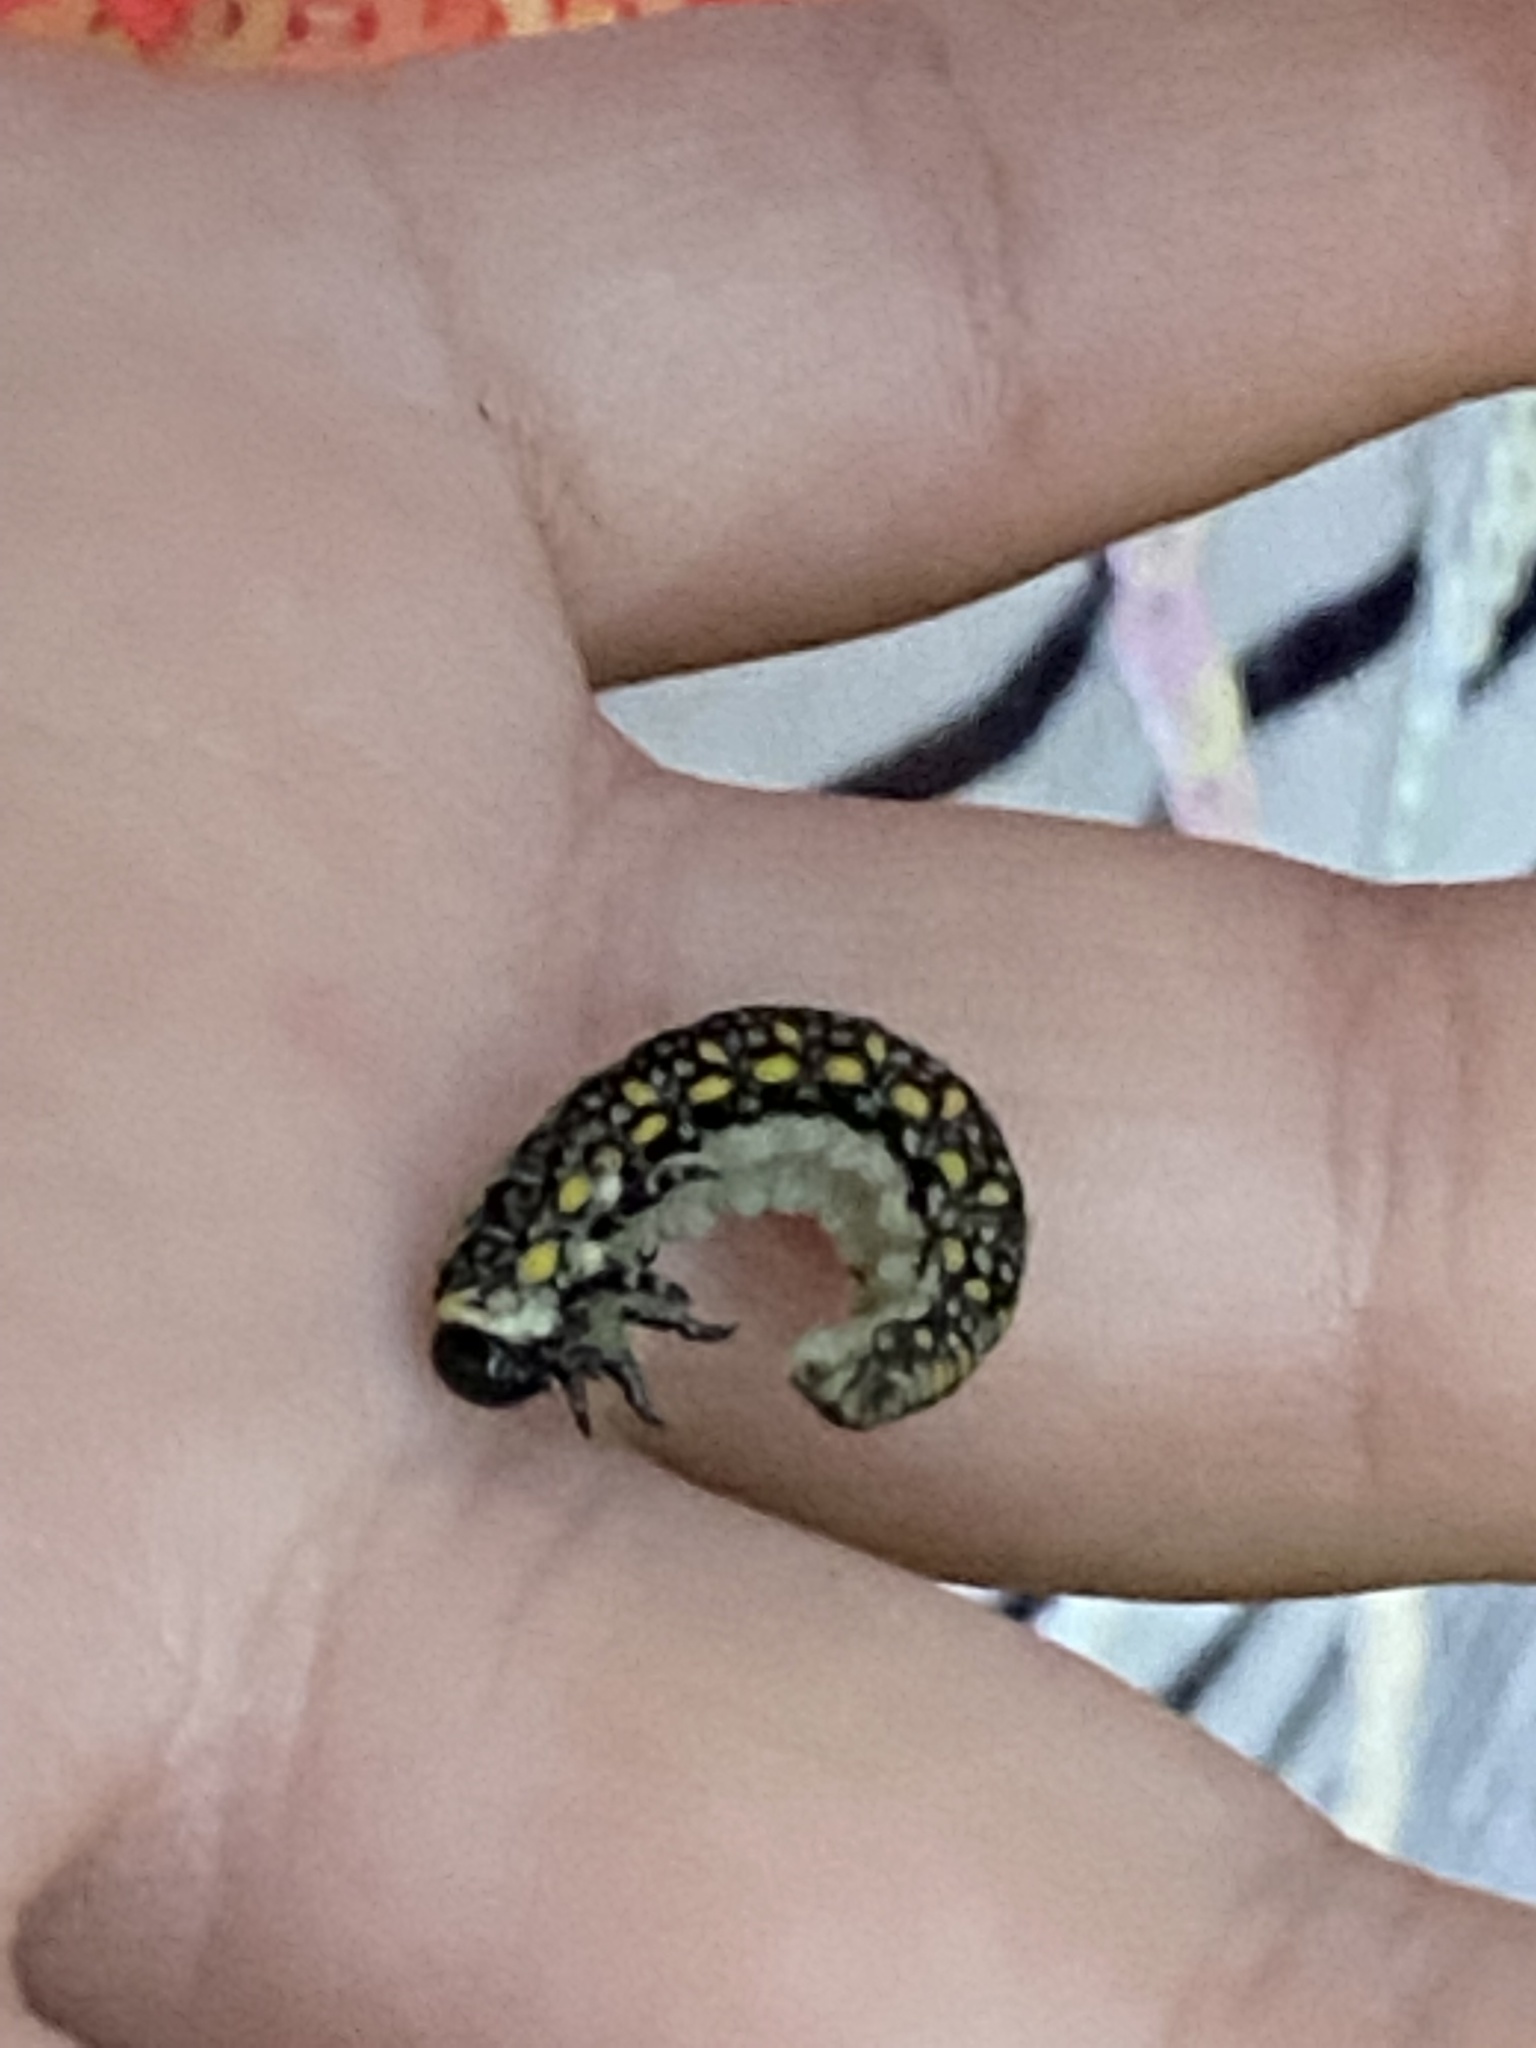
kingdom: Animalia
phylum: Arthropoda
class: Insecta
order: Hymenoptera
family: Diprionidae
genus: Diprion
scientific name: Diprion similis
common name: Pine sawfly
